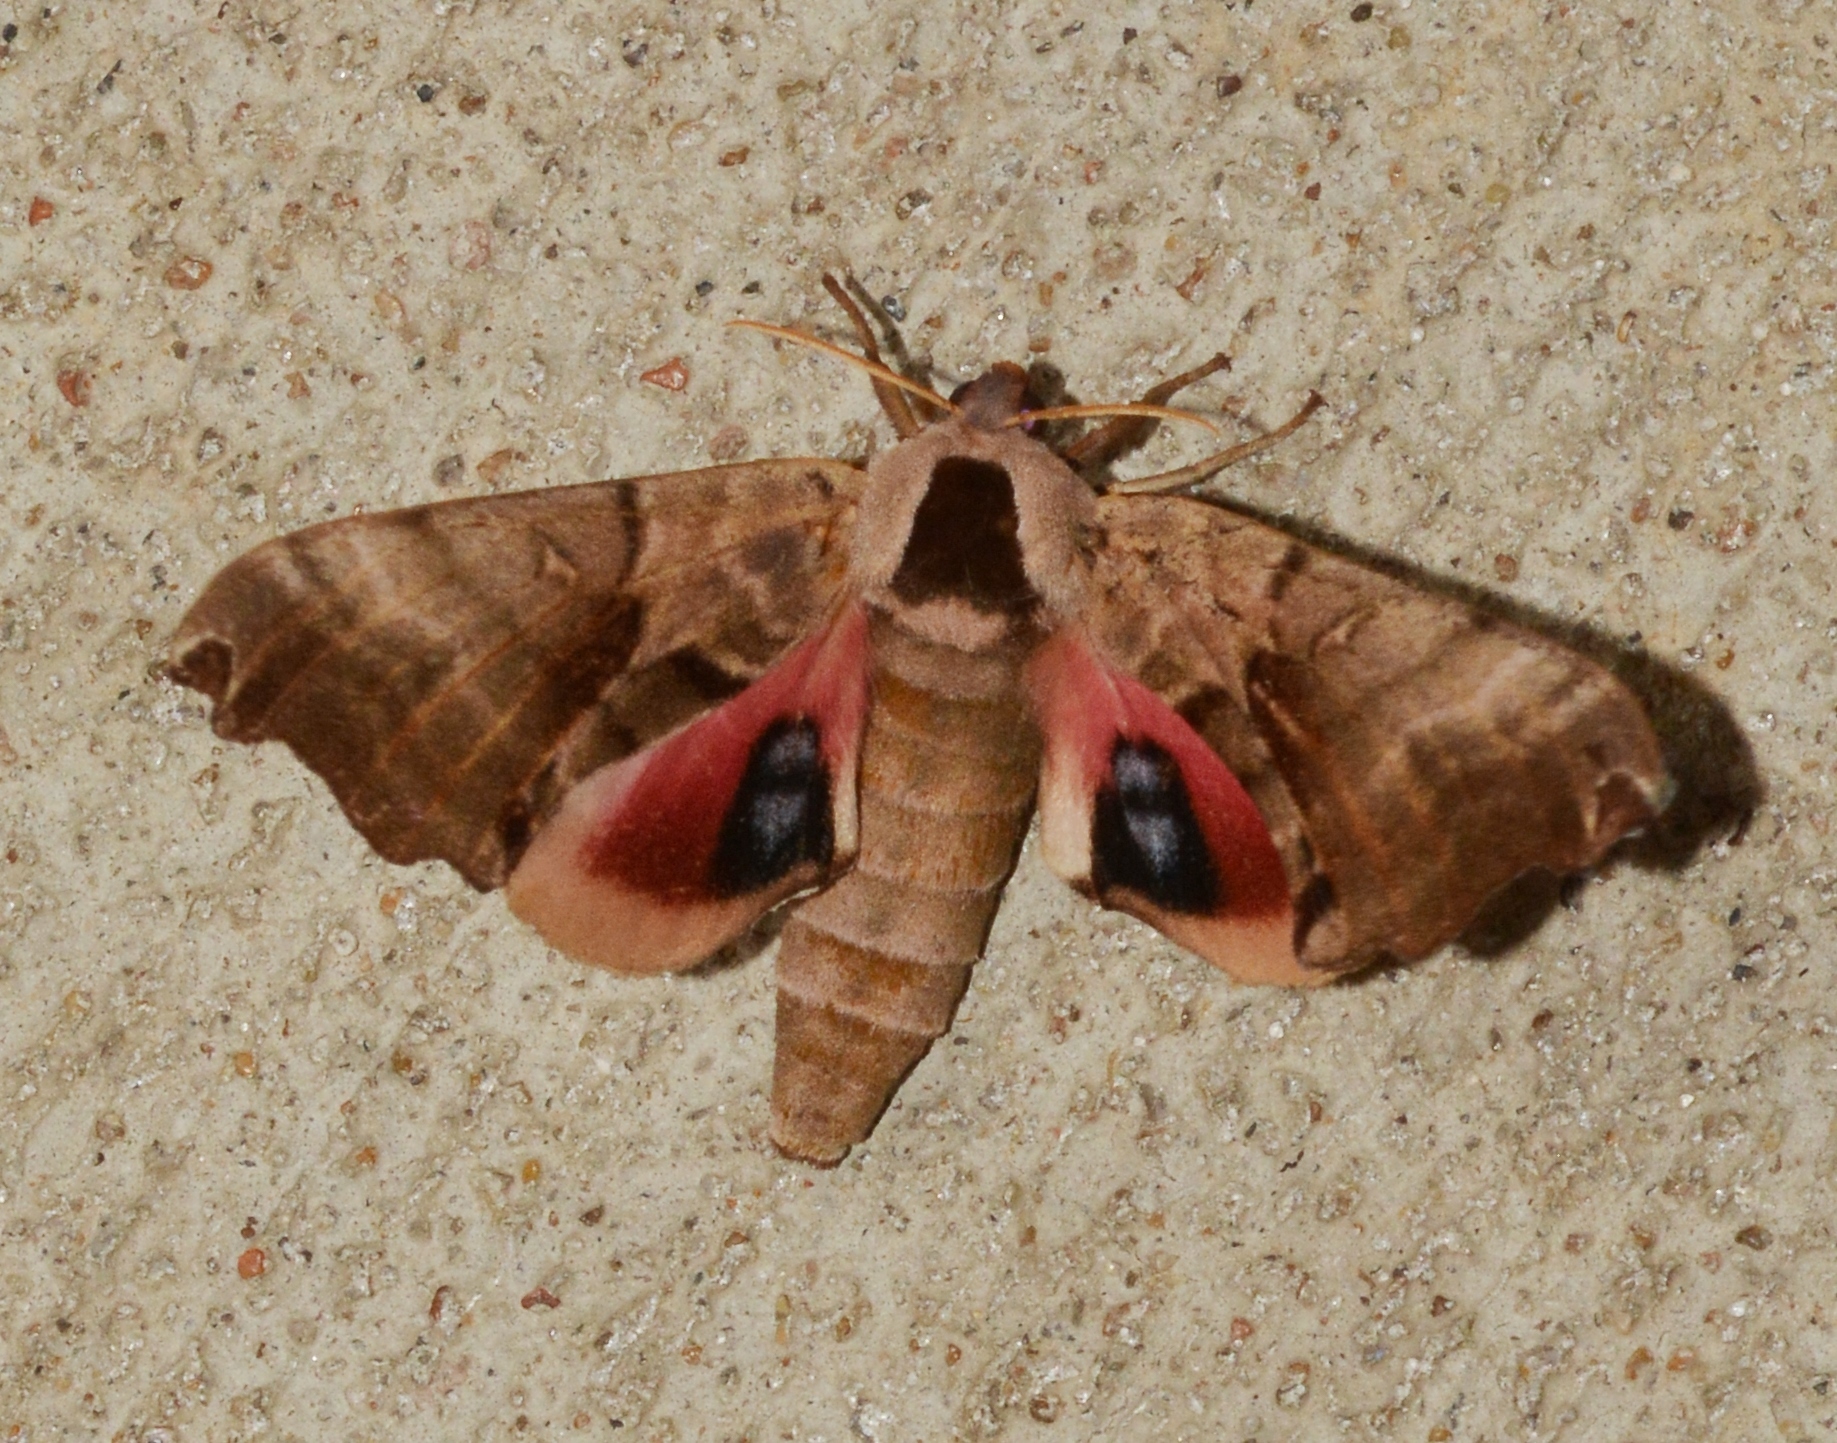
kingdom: Animalia
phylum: Arthropoda
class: Insecta
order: Lepidoptera
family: Sphingidae
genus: Smerinthus
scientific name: Smerinthus jamaicensis
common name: Twin spotted sphinx
